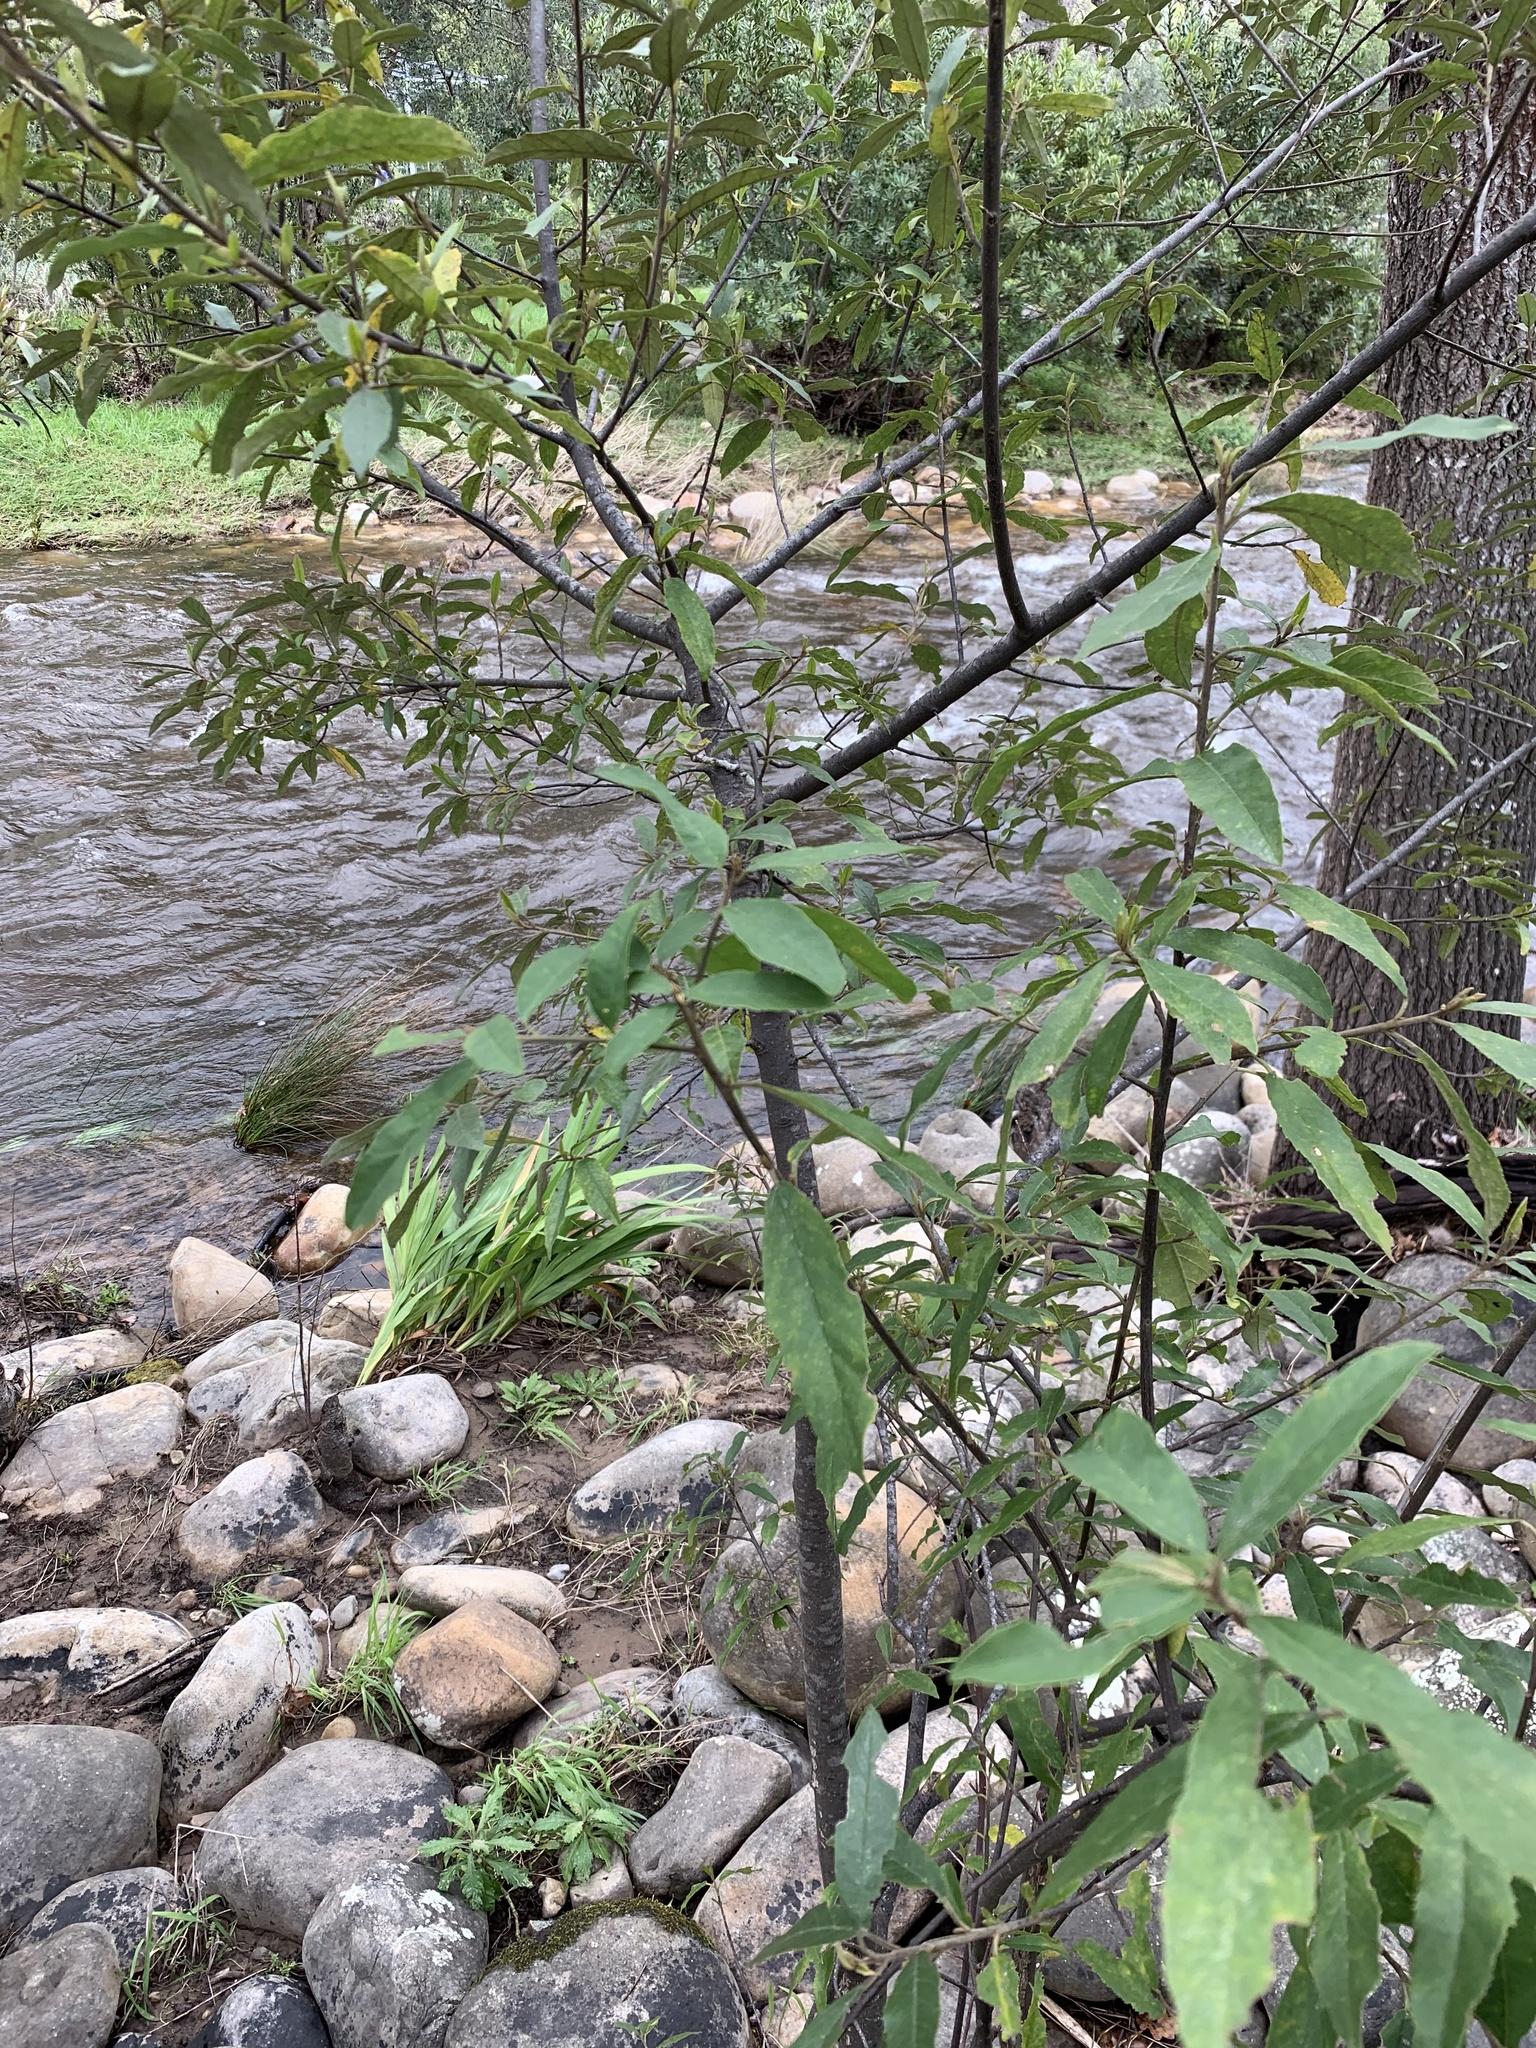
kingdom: Plantae
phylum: Tracheophyta
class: Magnoliopsida
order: Malpighiales
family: Achariaceae
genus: Kiggelaria
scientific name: Kiggelaria africana
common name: Wild peach
